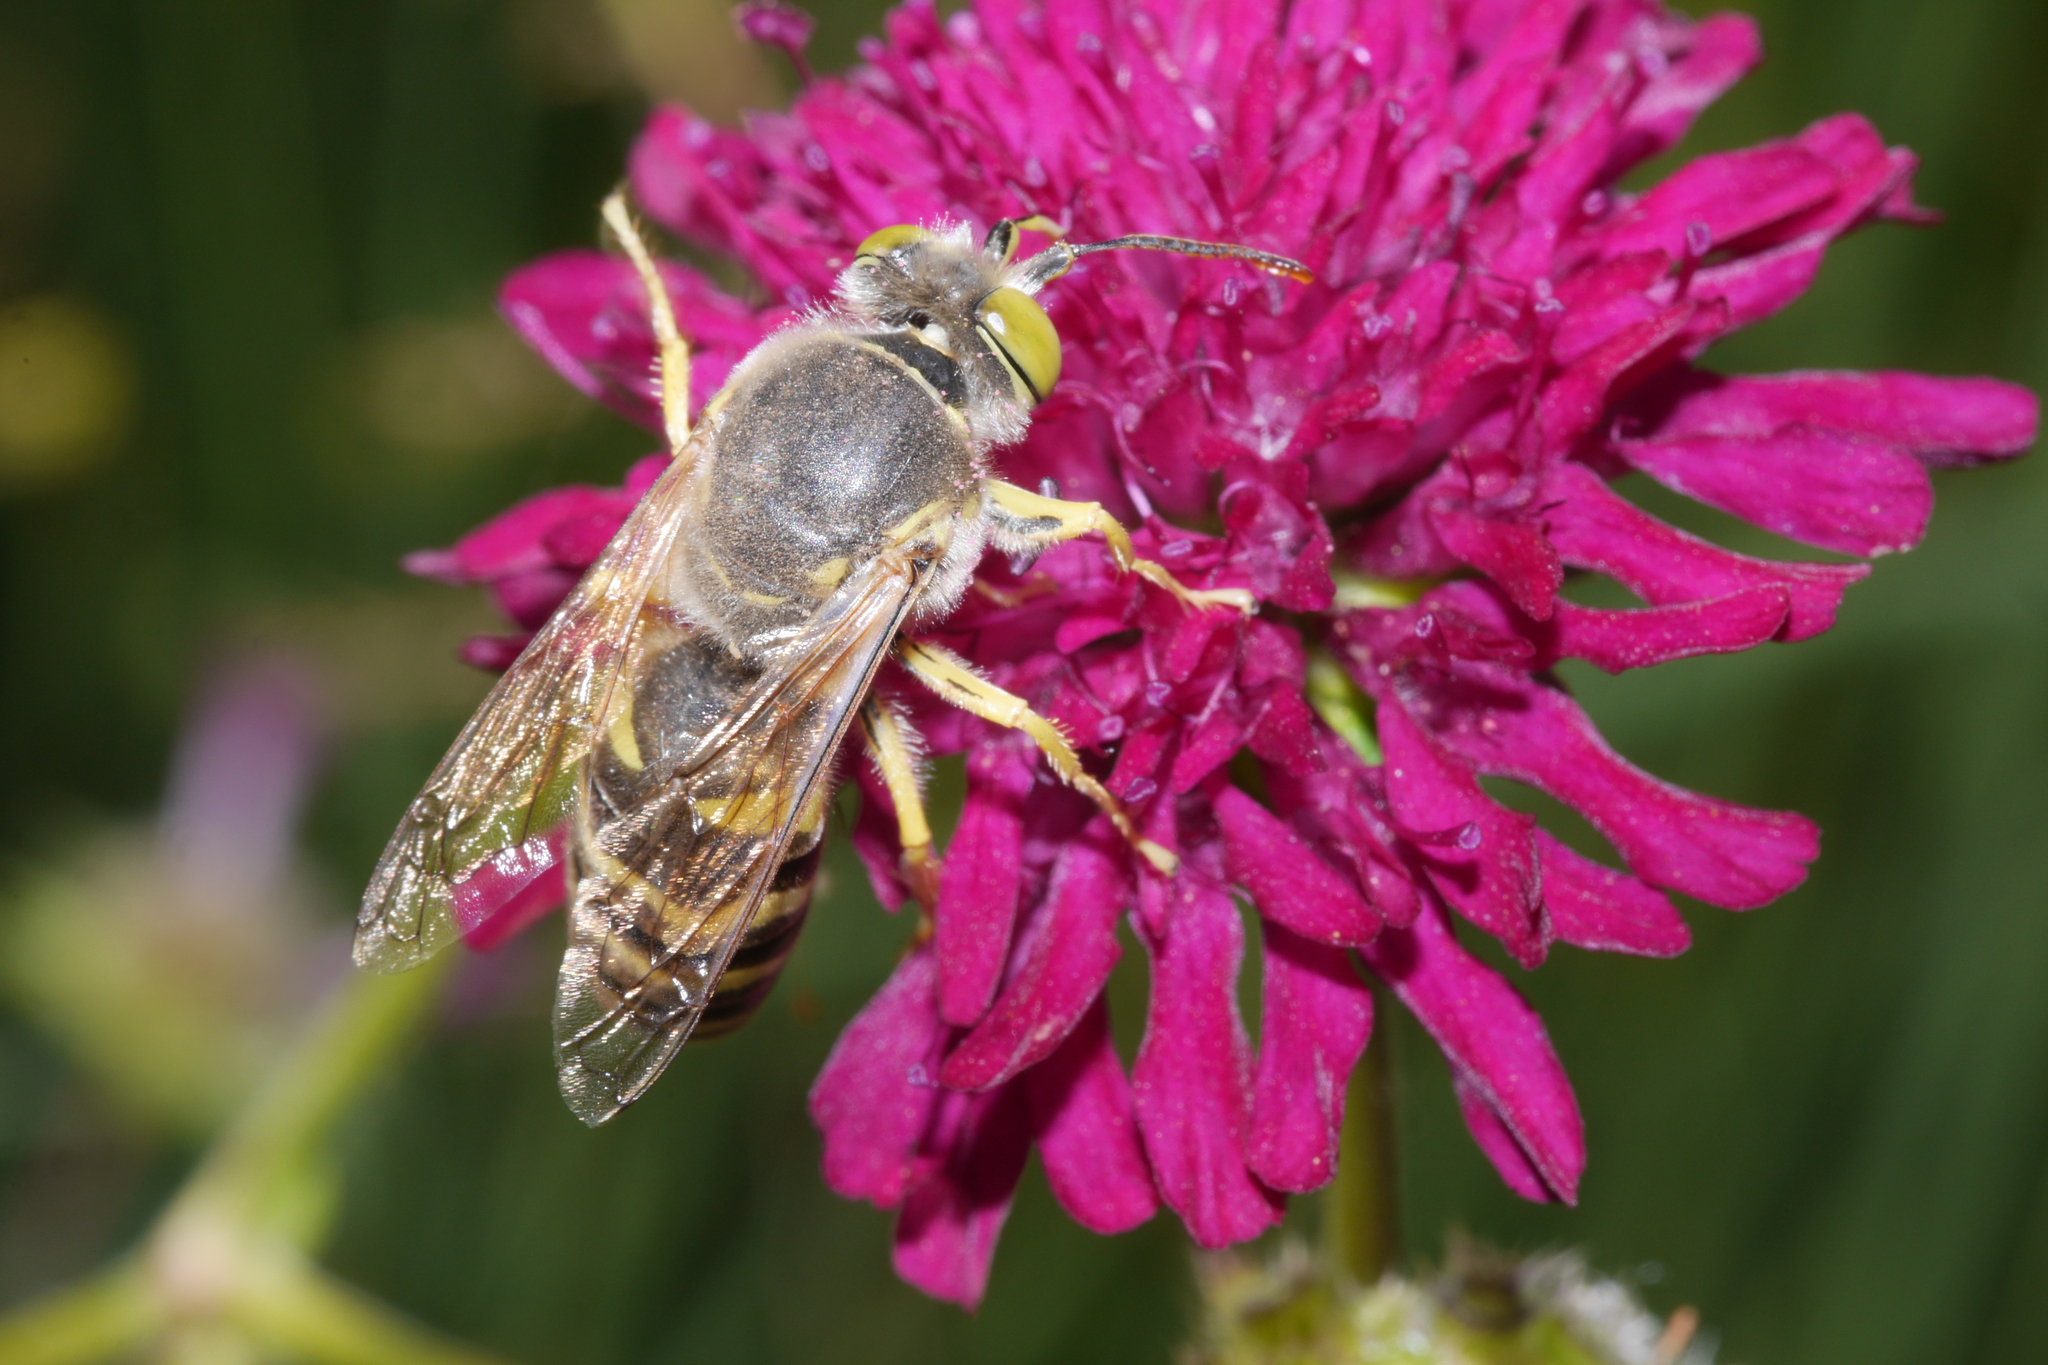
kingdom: Animalia
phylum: Arthropoda
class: Insecta
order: Hymenoptera
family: Crabronidae
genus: Bembix
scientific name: Bembix rostrata
